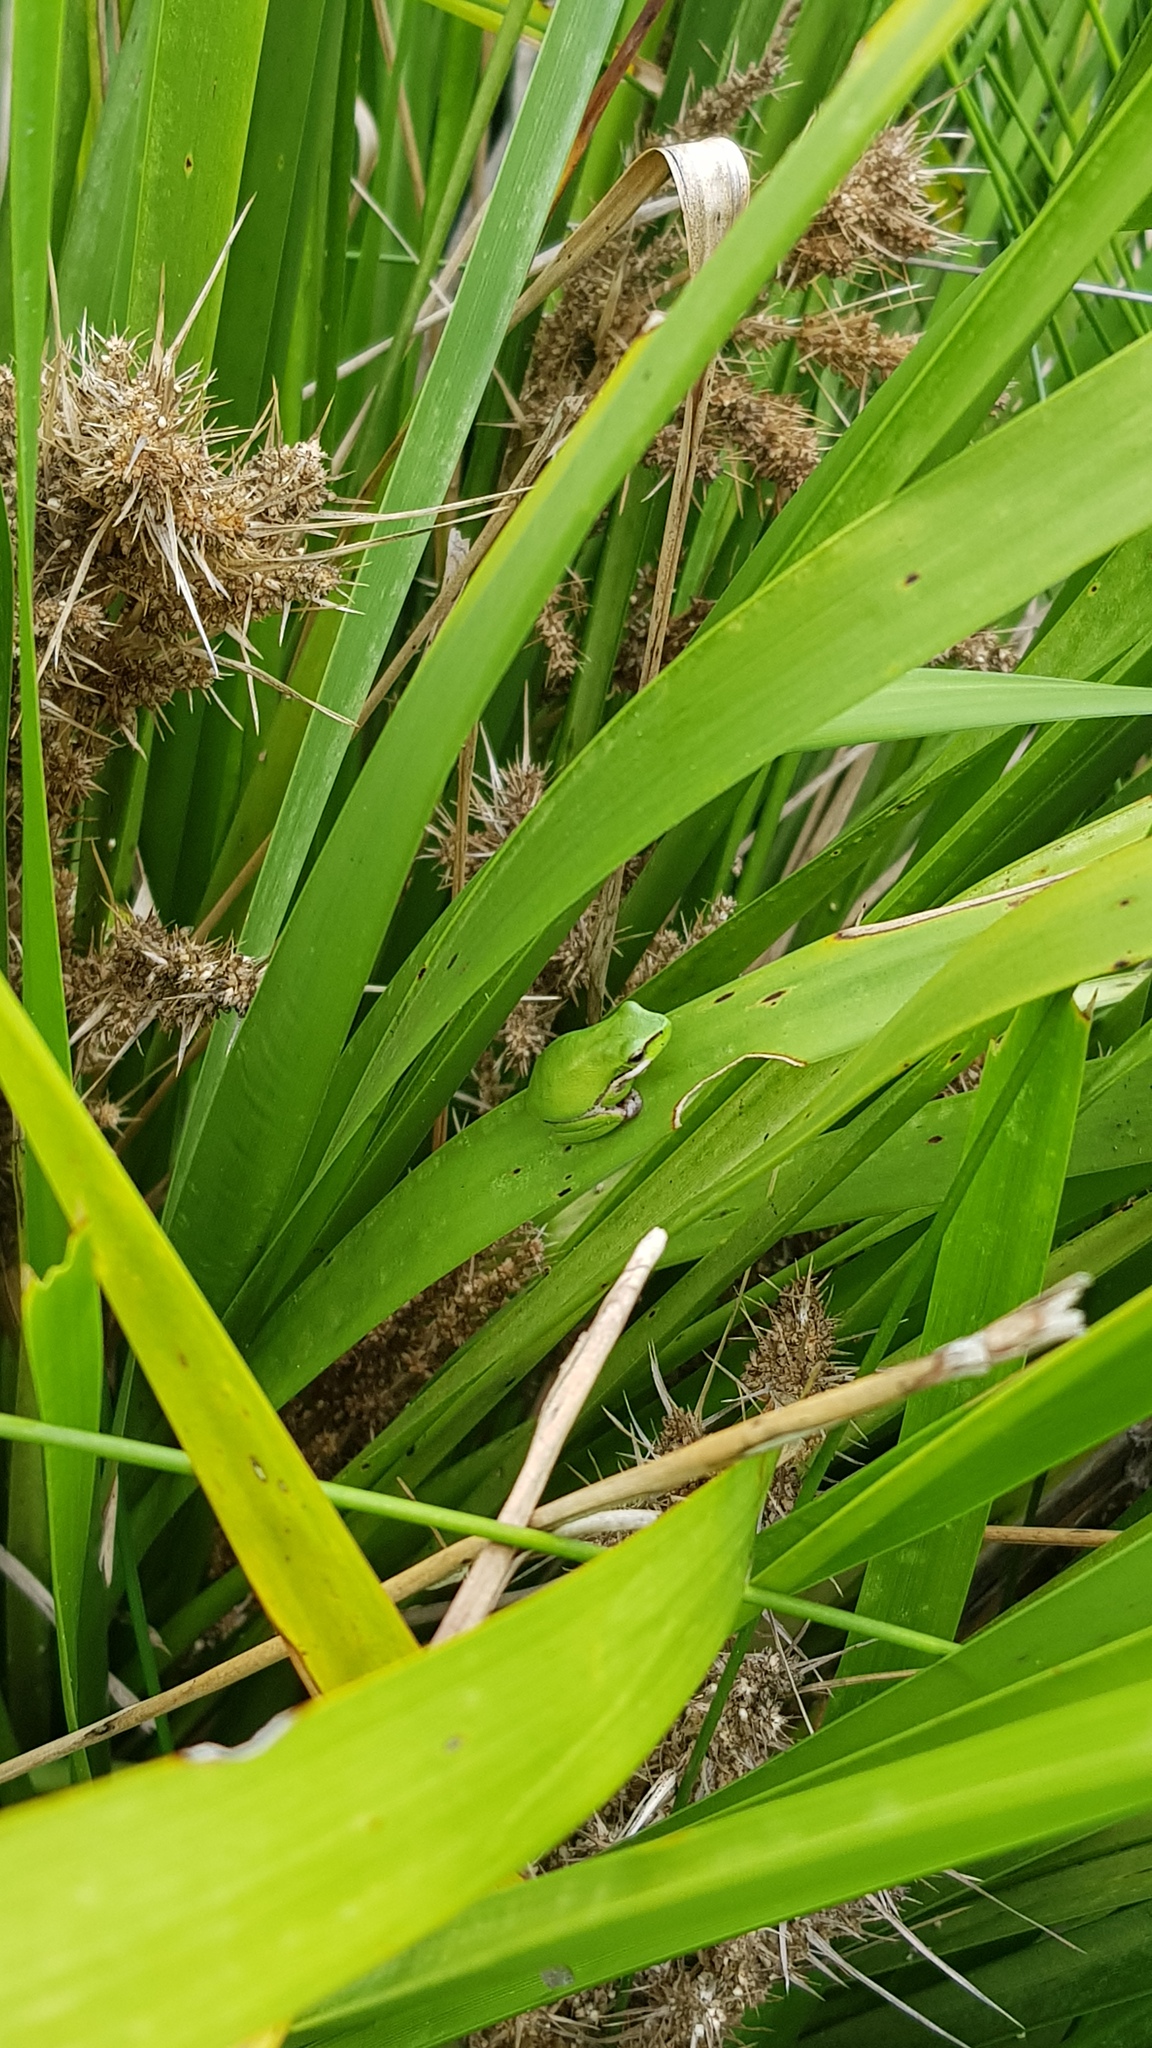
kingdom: Animalia
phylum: Chordata
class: Amphibia
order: Anura
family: Pelodryadidae
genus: Litoria
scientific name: Litoria fallax
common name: Eastern dwarf treefrog
